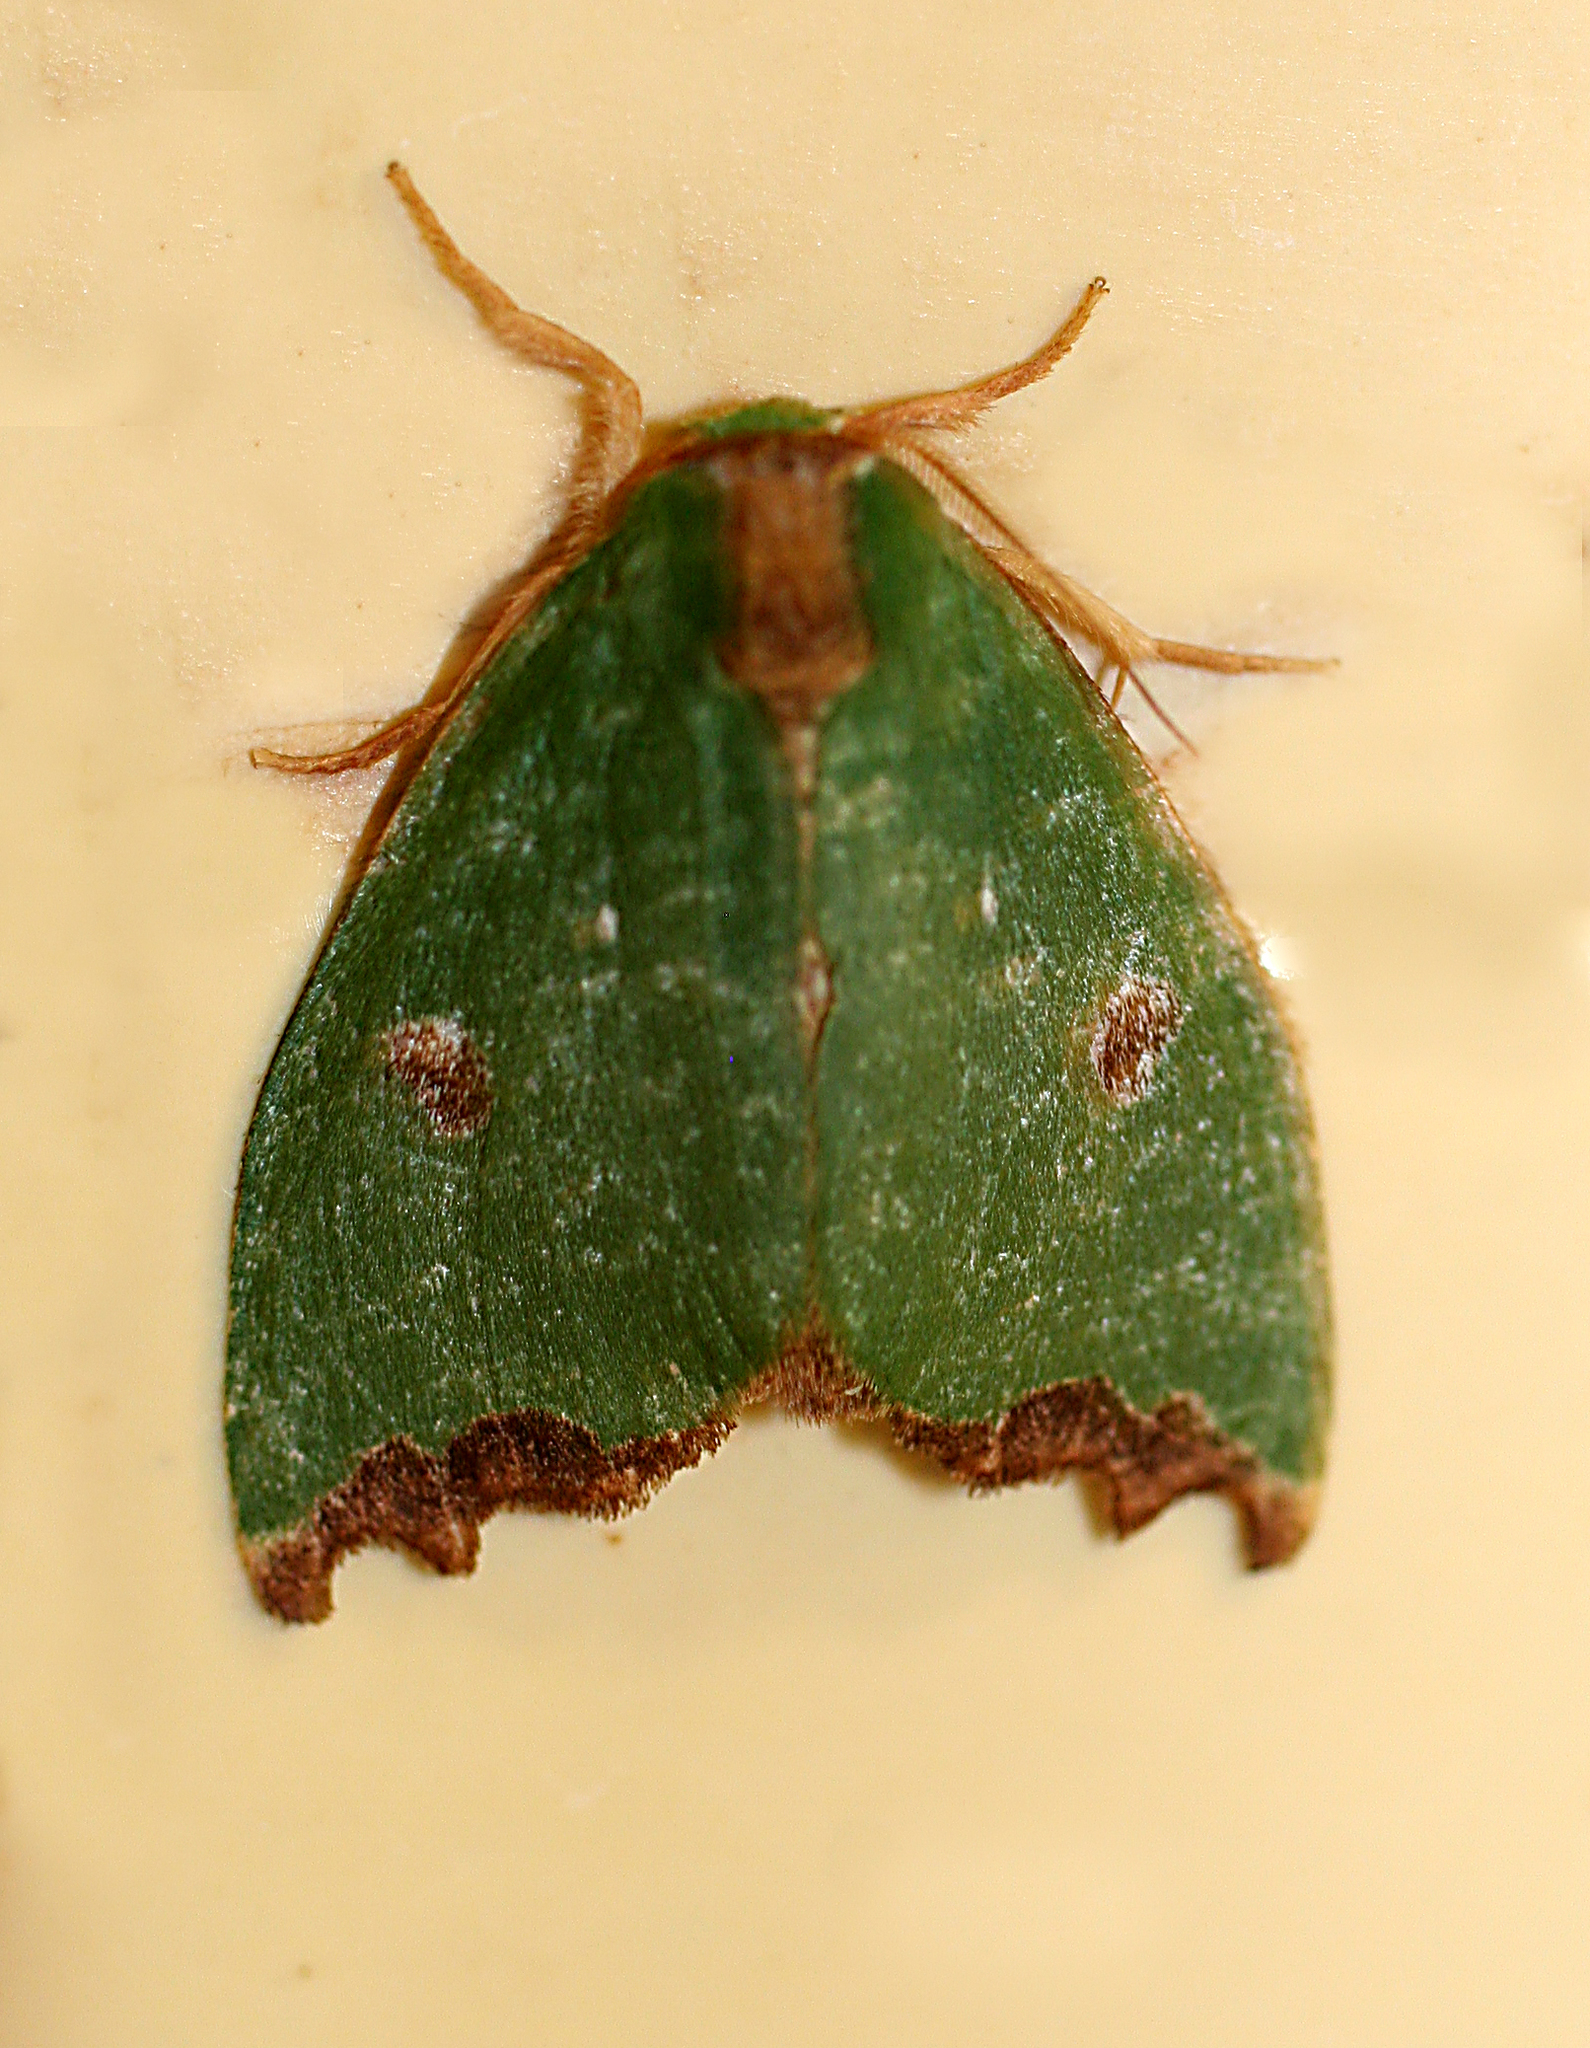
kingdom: Animalia
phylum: Arthropoda
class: Insecta
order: Lepidoptera
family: Notodontidae
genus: Rosema
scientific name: Rosema deolis
